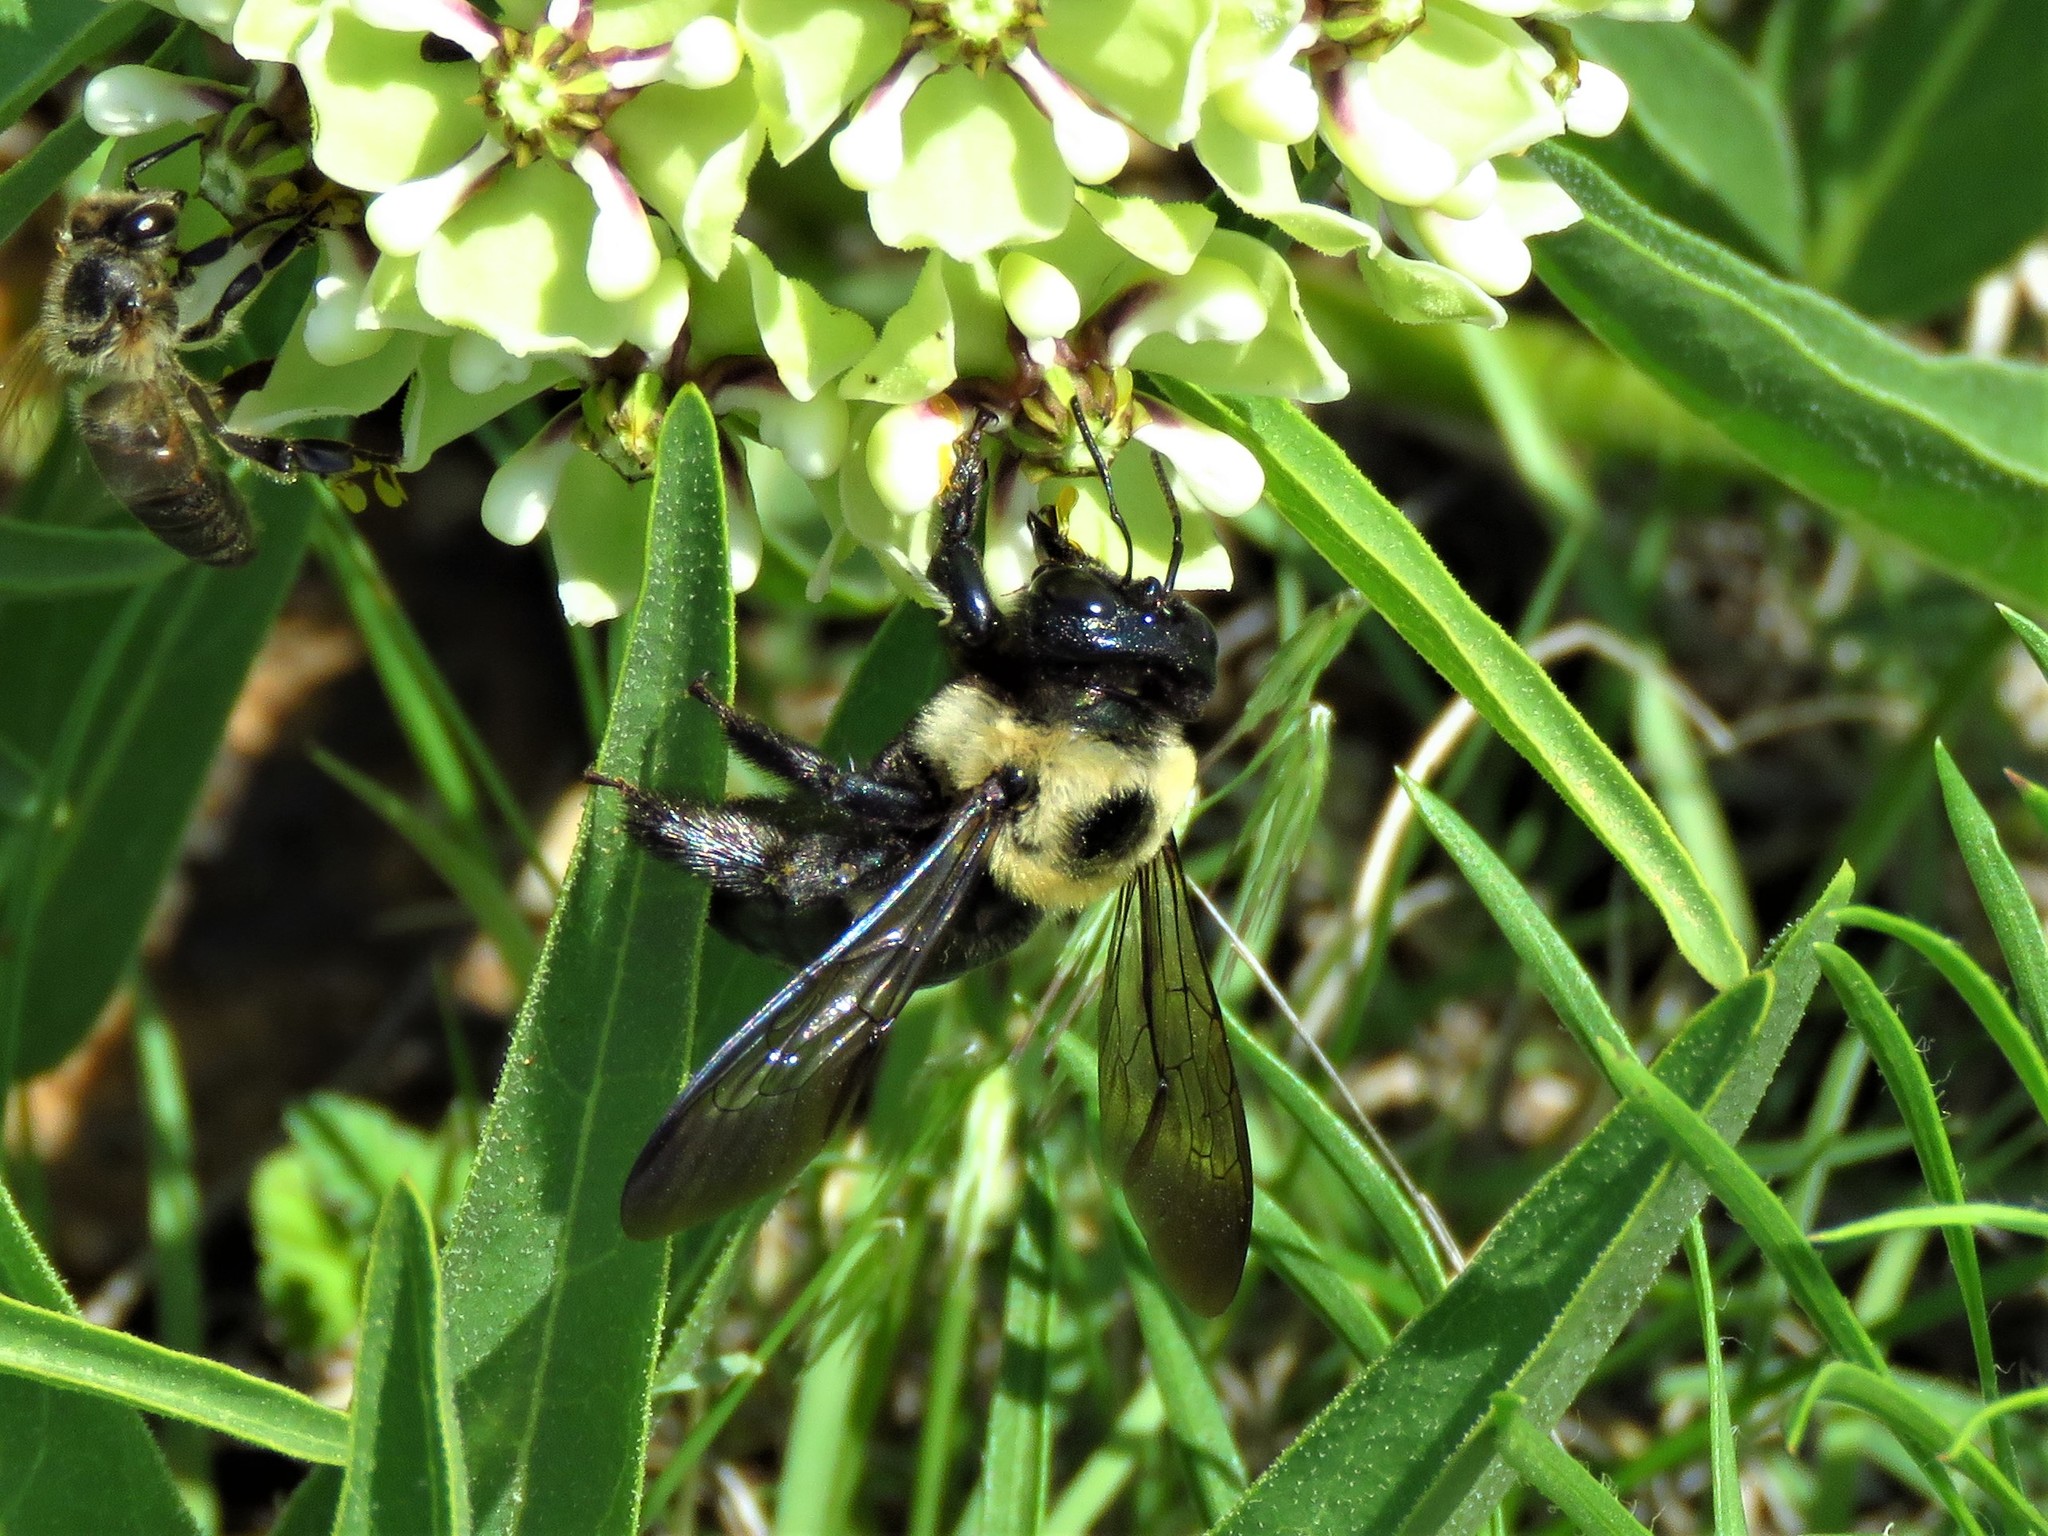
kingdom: Animalia
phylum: Arthropoda
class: Insecta
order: Hymenoptera
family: Apidae
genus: Xylocopa
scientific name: Xylocopa virginica
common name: Carpenter bee
